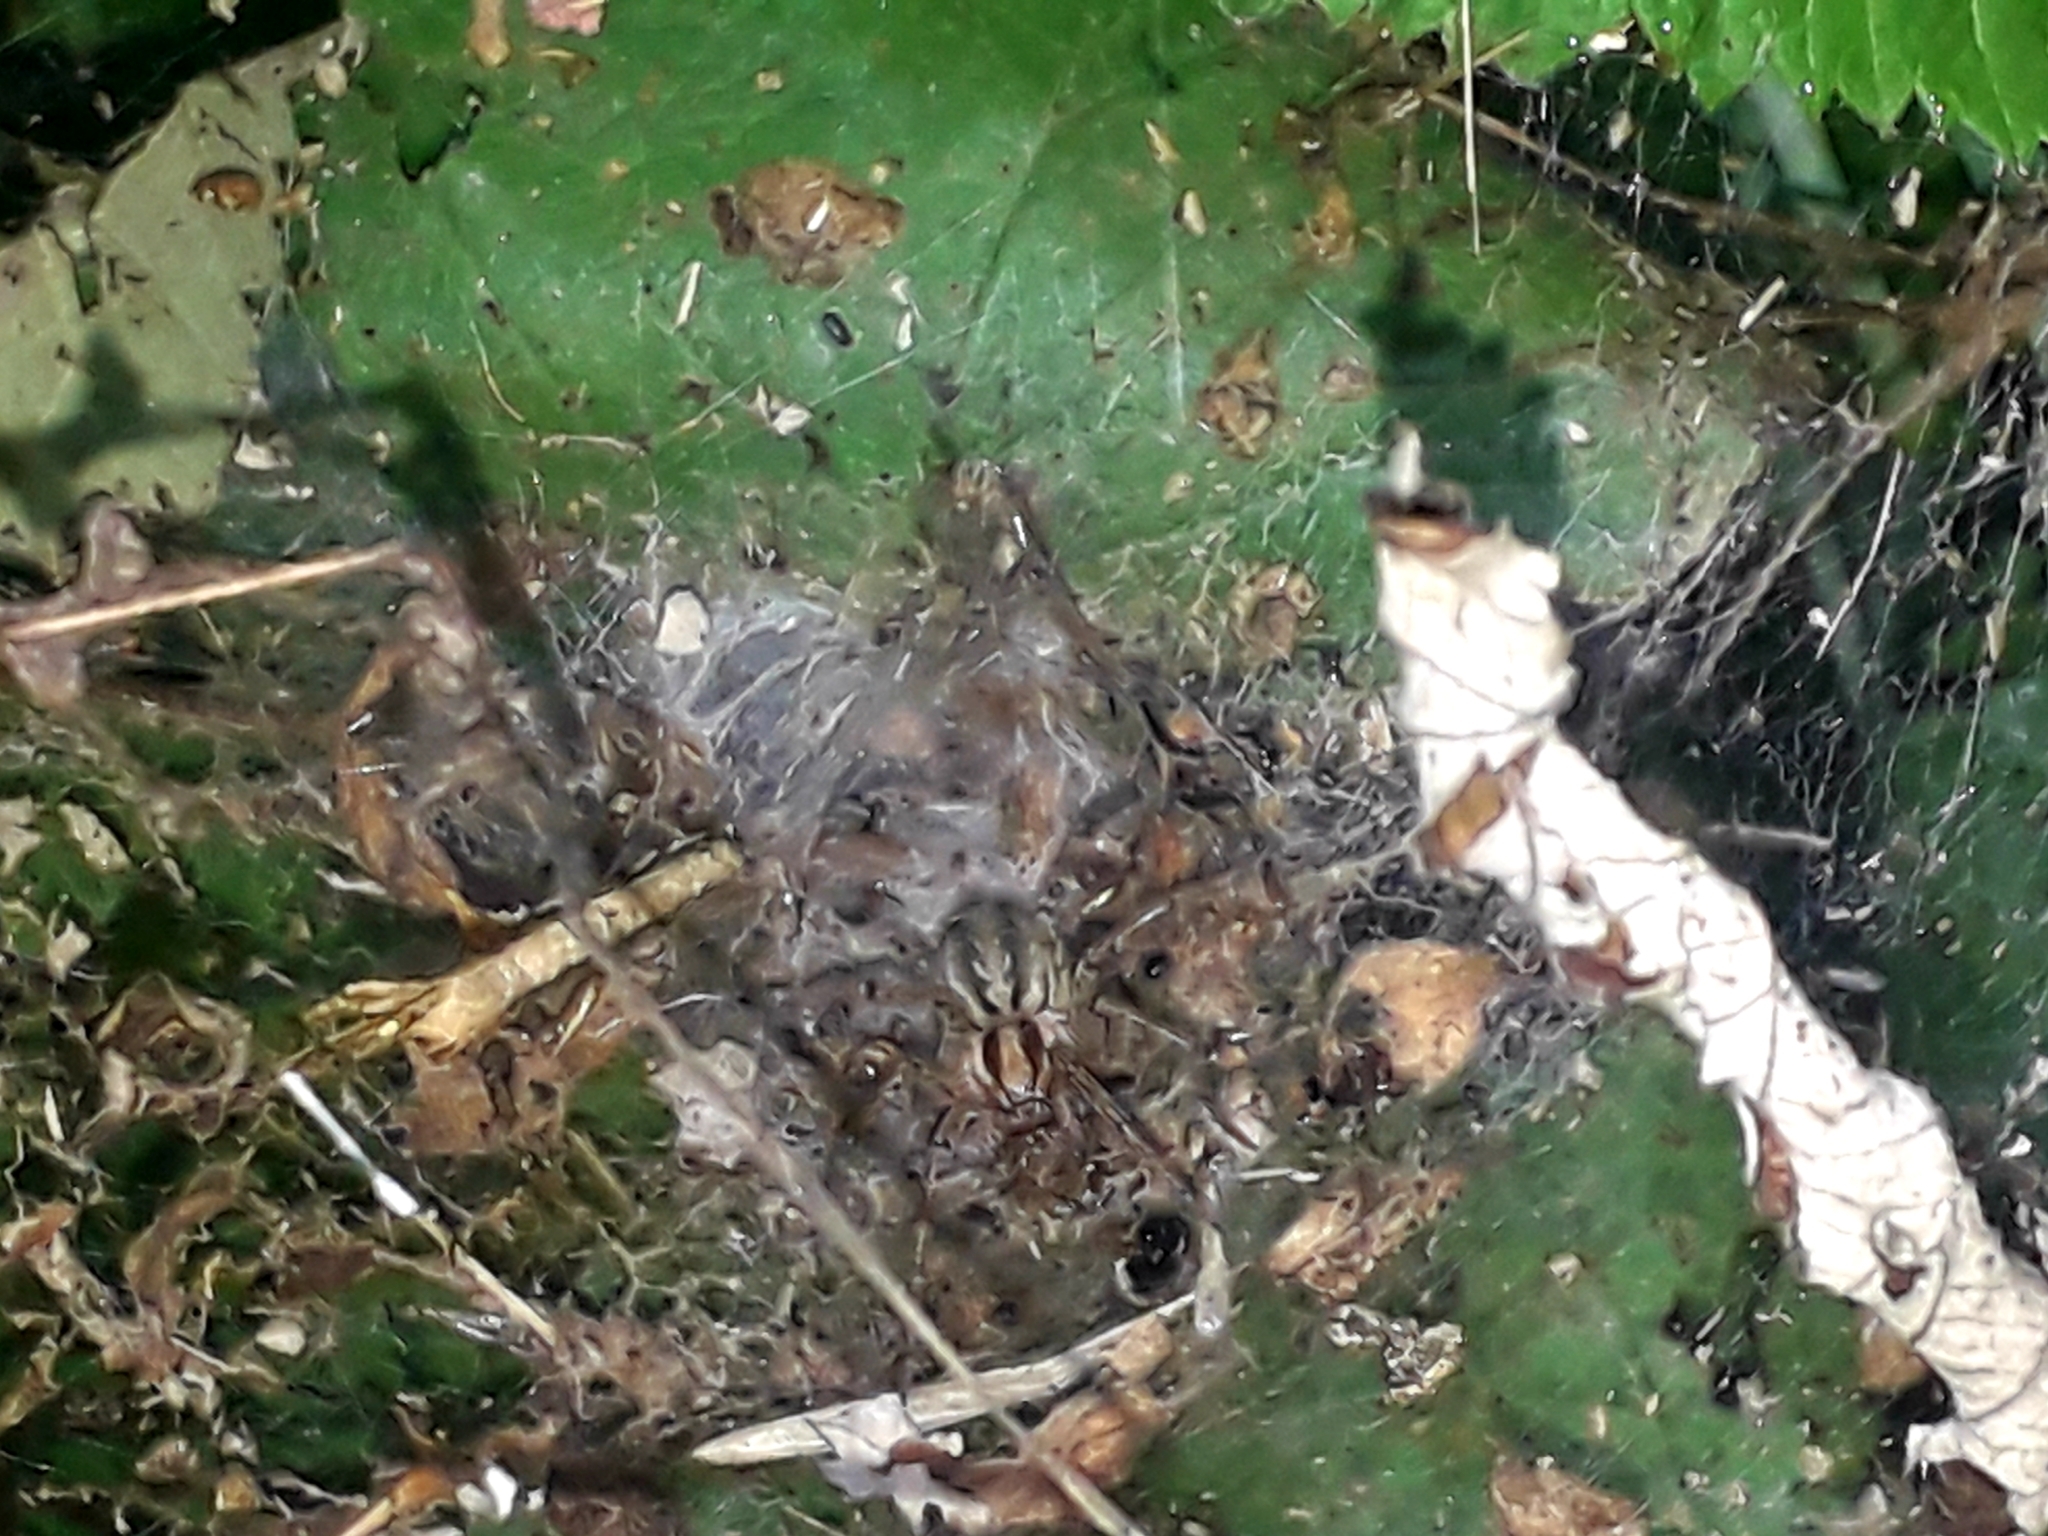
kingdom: Animalia
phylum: Arthropoda
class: Arachnida
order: Araneae
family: Agelenidae
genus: Agelena
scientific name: Agelena labyrinthica
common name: Labyrinth spider
